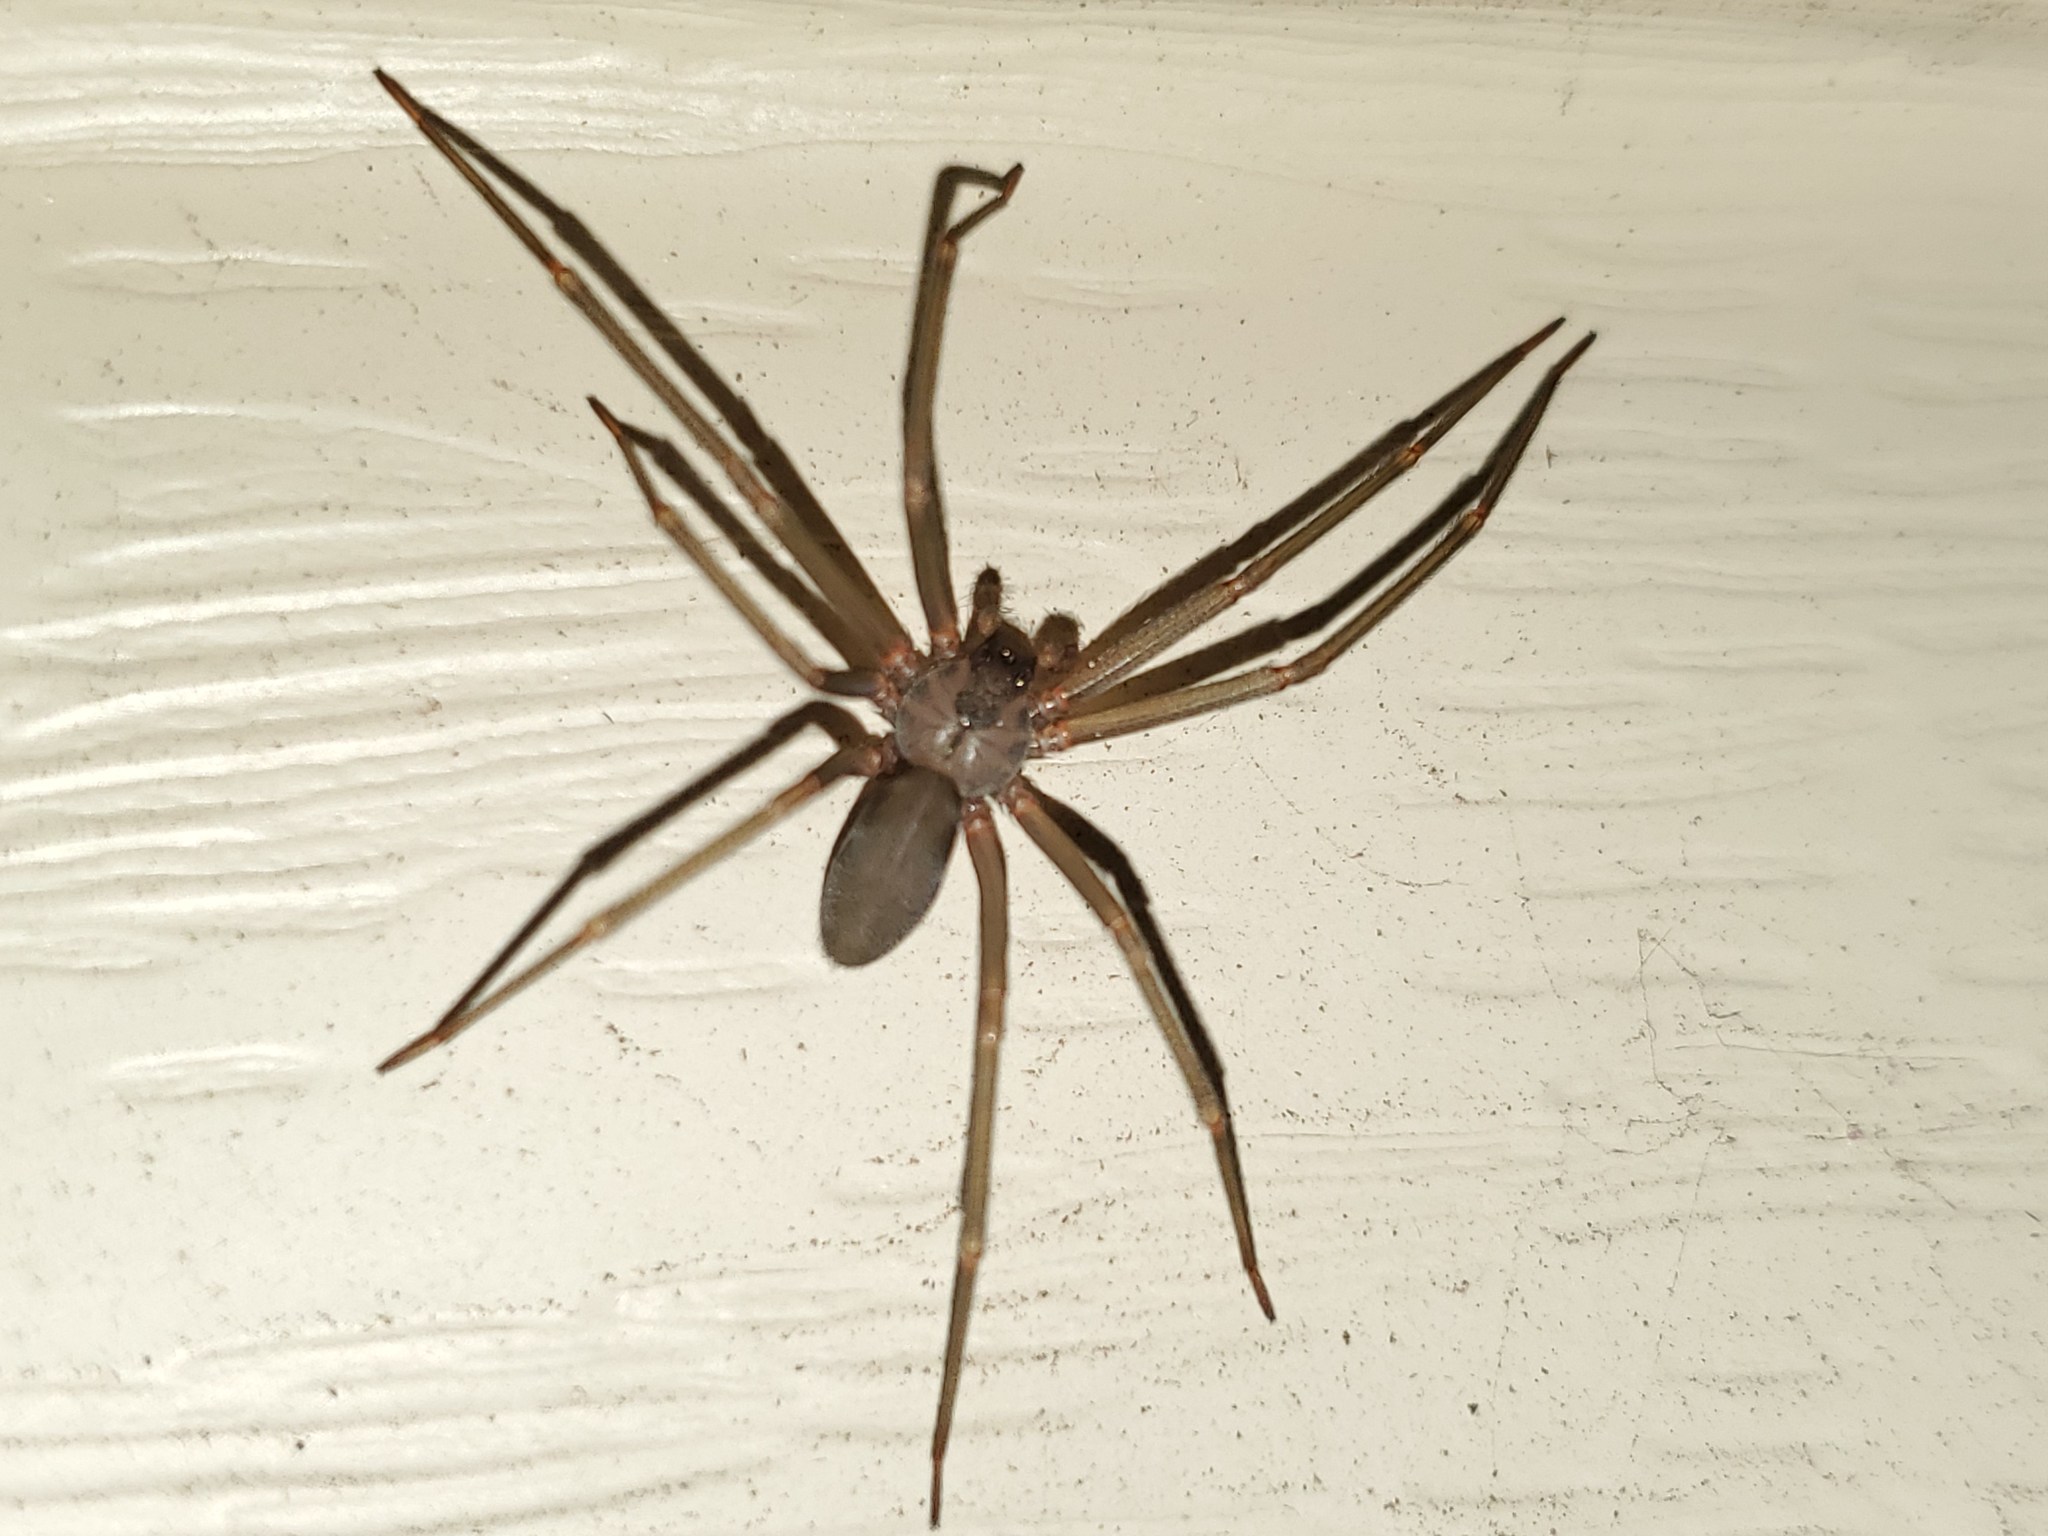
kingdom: Animalia
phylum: Arthropoda
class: Arachnida
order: Araneae
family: Sicariidae
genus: Loxosceles
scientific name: Loxosceles reclusa
